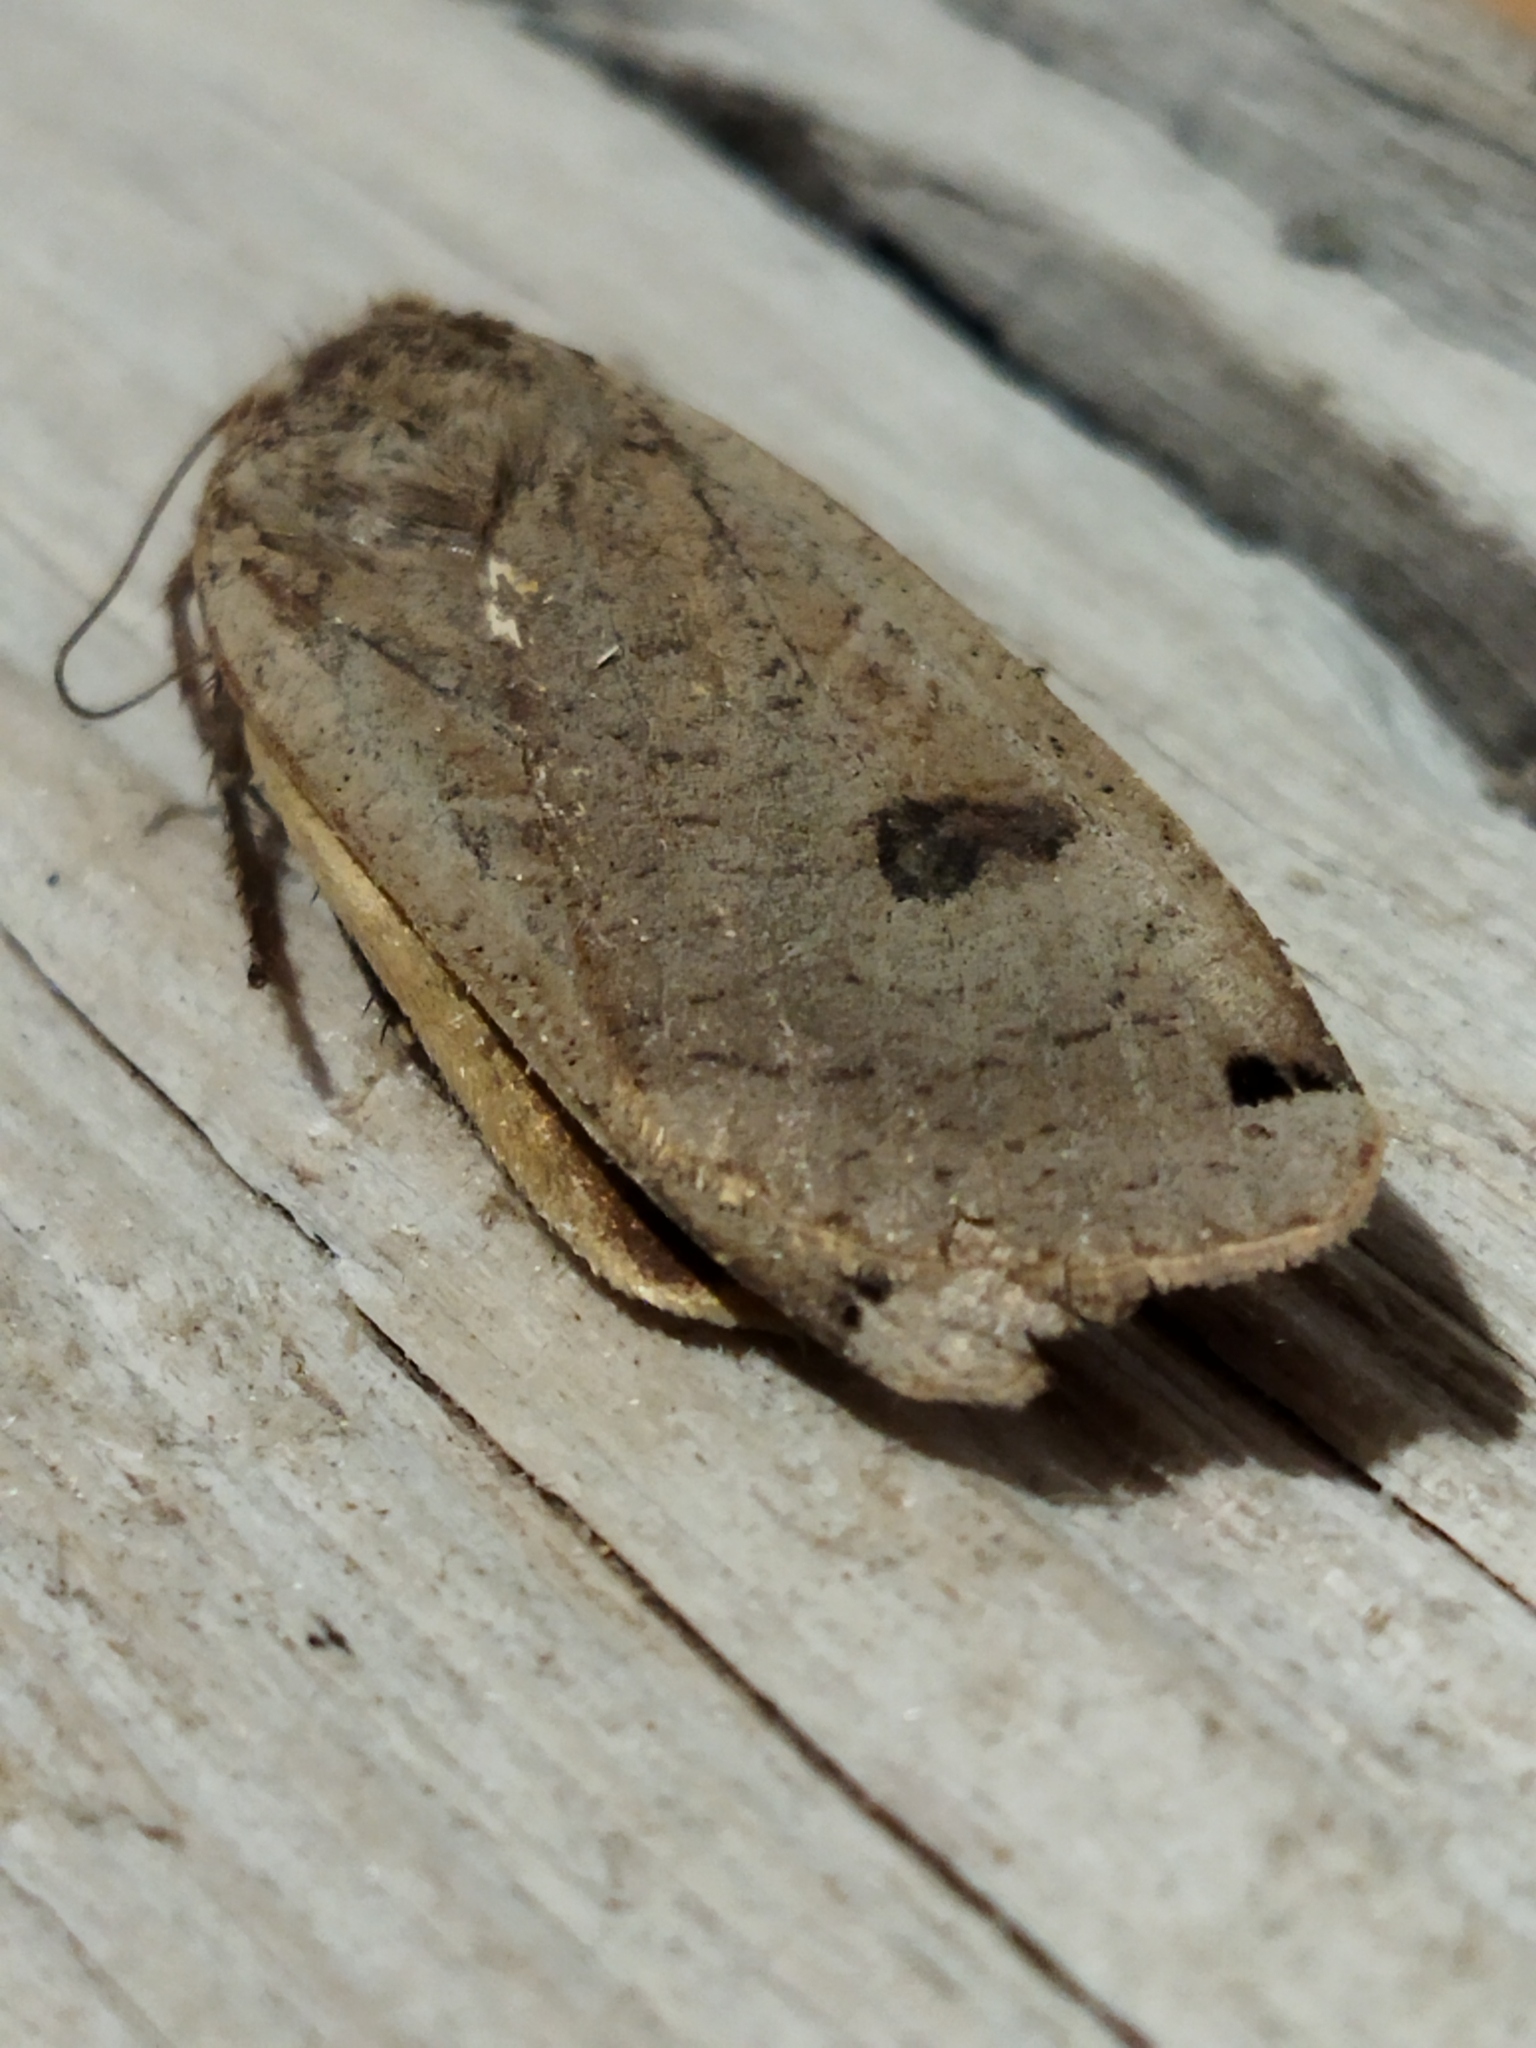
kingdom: Animalia
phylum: Arthropoda
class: Insecta
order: Lepidoptera
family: Noctuidae
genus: Noctua
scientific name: Noctua pronuba
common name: Large yellow underwing
